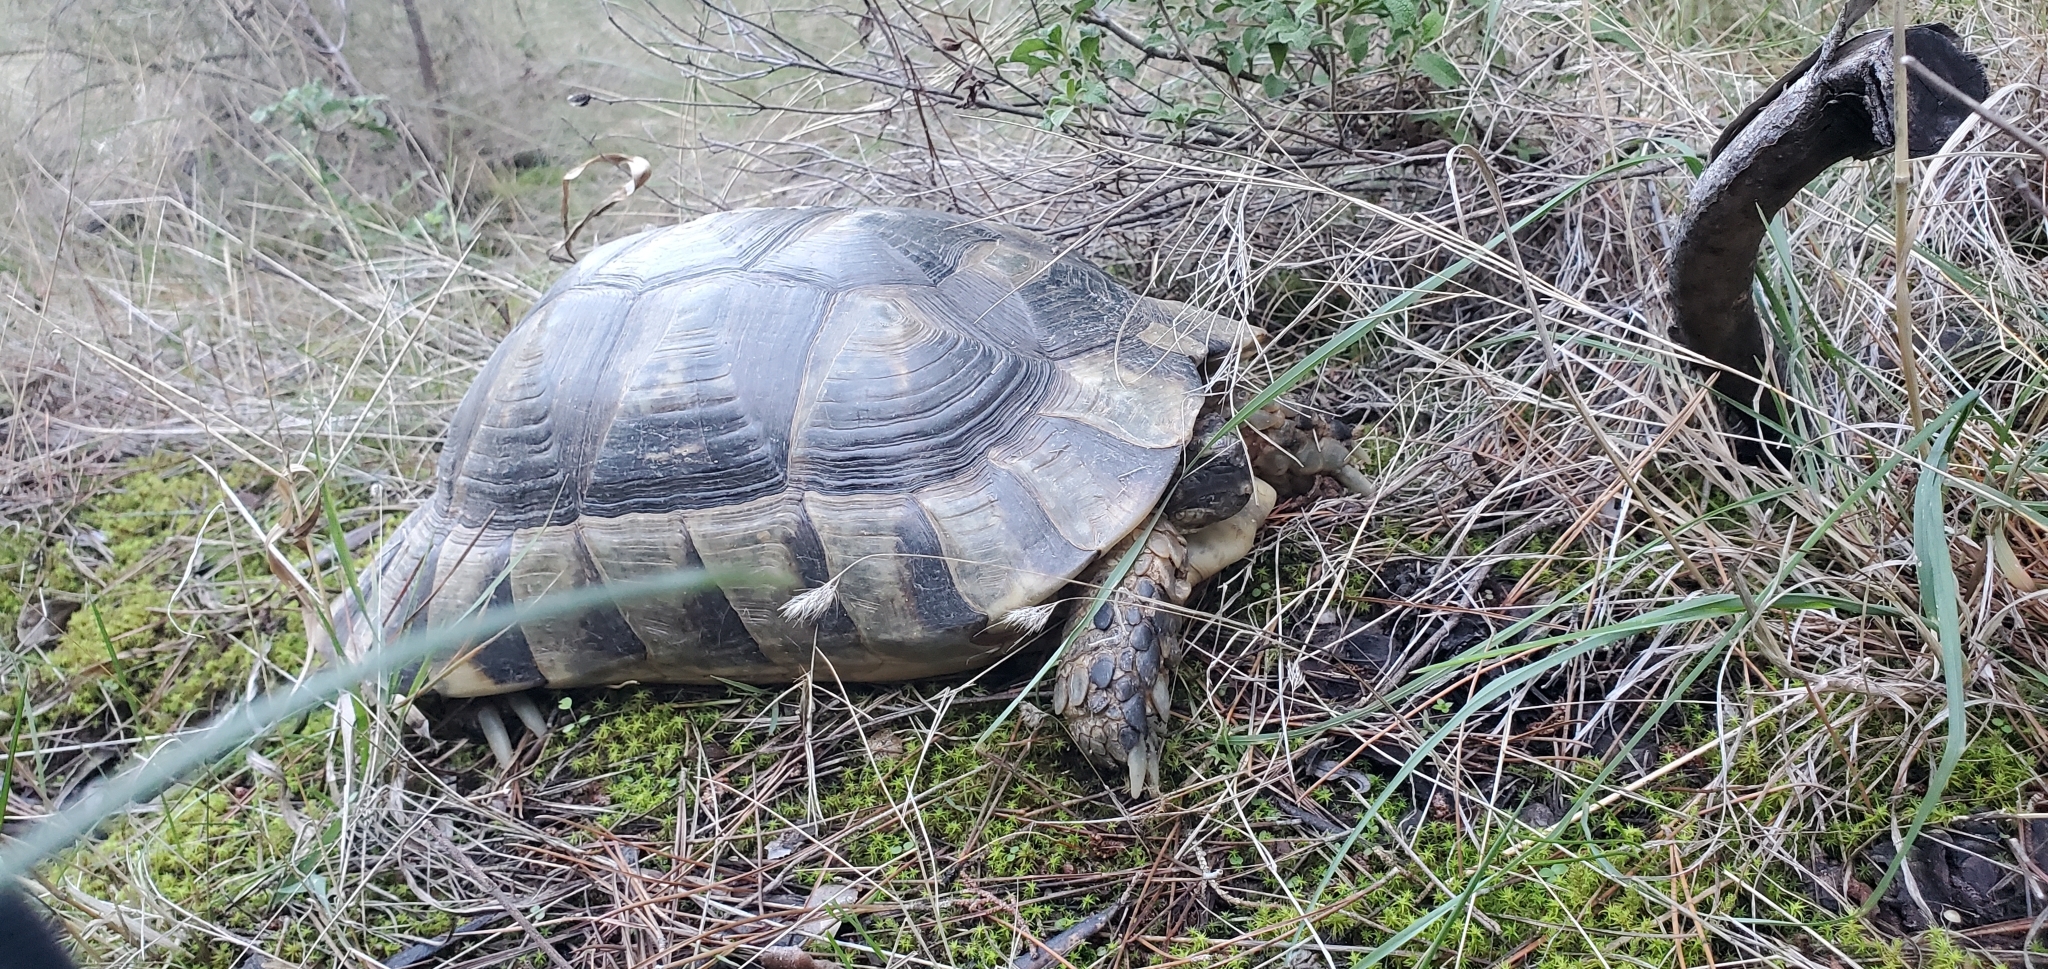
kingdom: Animalia
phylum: Chordata
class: Testudines
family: Testudinidae
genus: Testudo
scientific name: Testudo marginata
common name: Marginated tortoise
